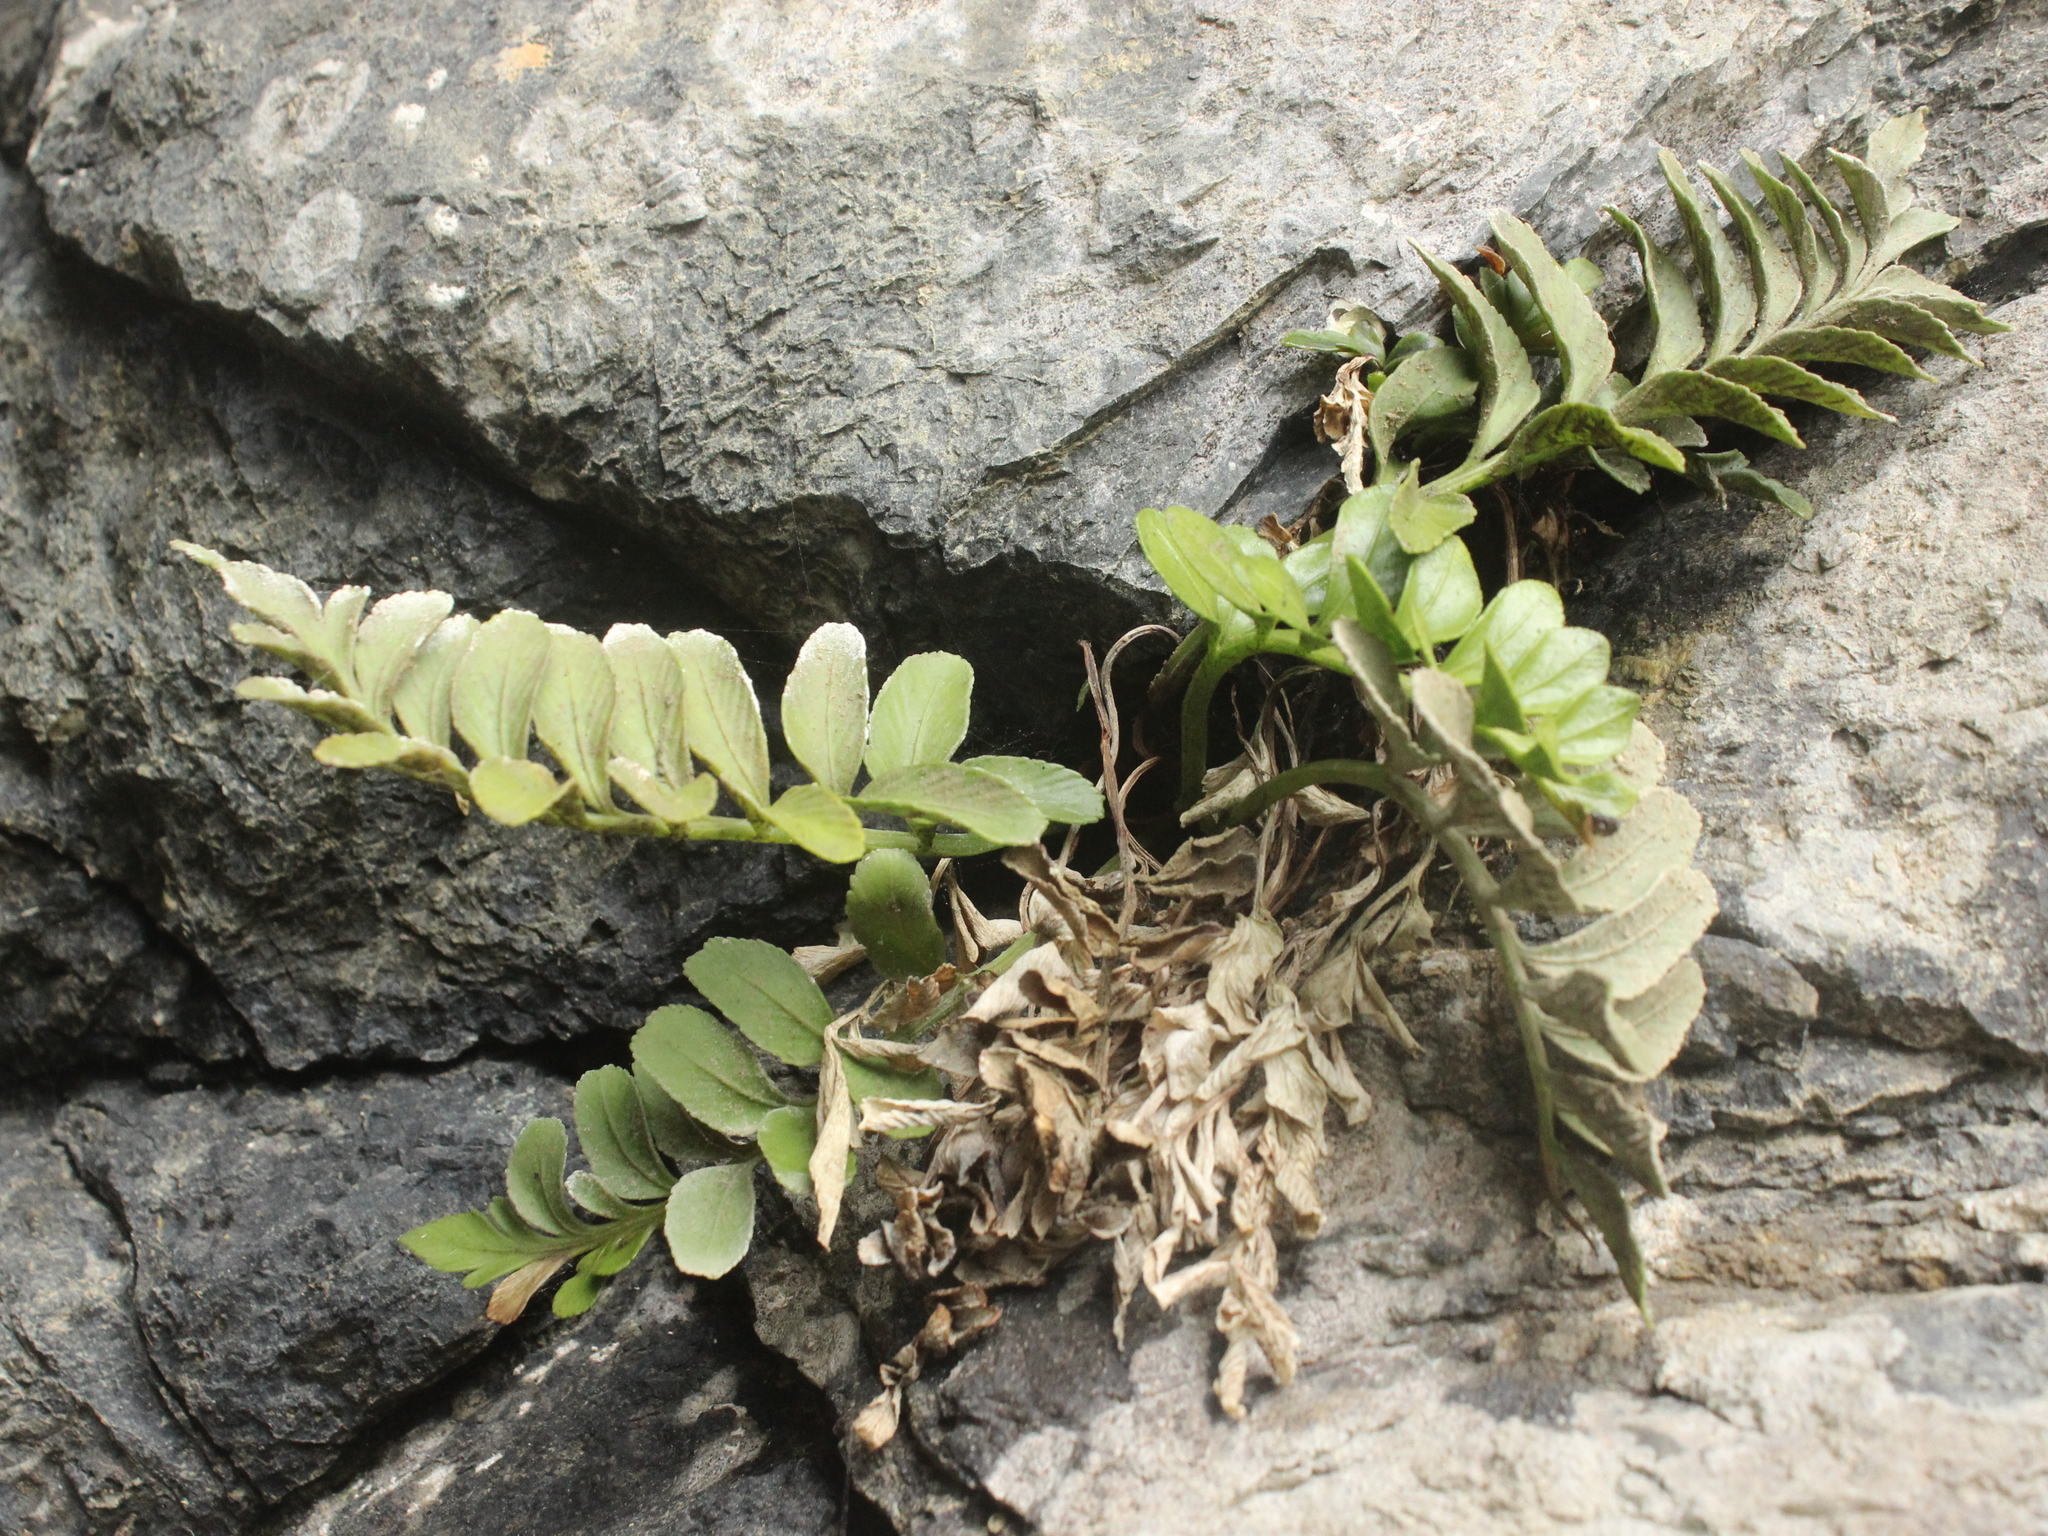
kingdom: Plantae
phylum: Tracheophyta
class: Polypodiopsida
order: Polypodiales
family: Aspleniaceae
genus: Asplenium
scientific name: Asplenium obtusatum
